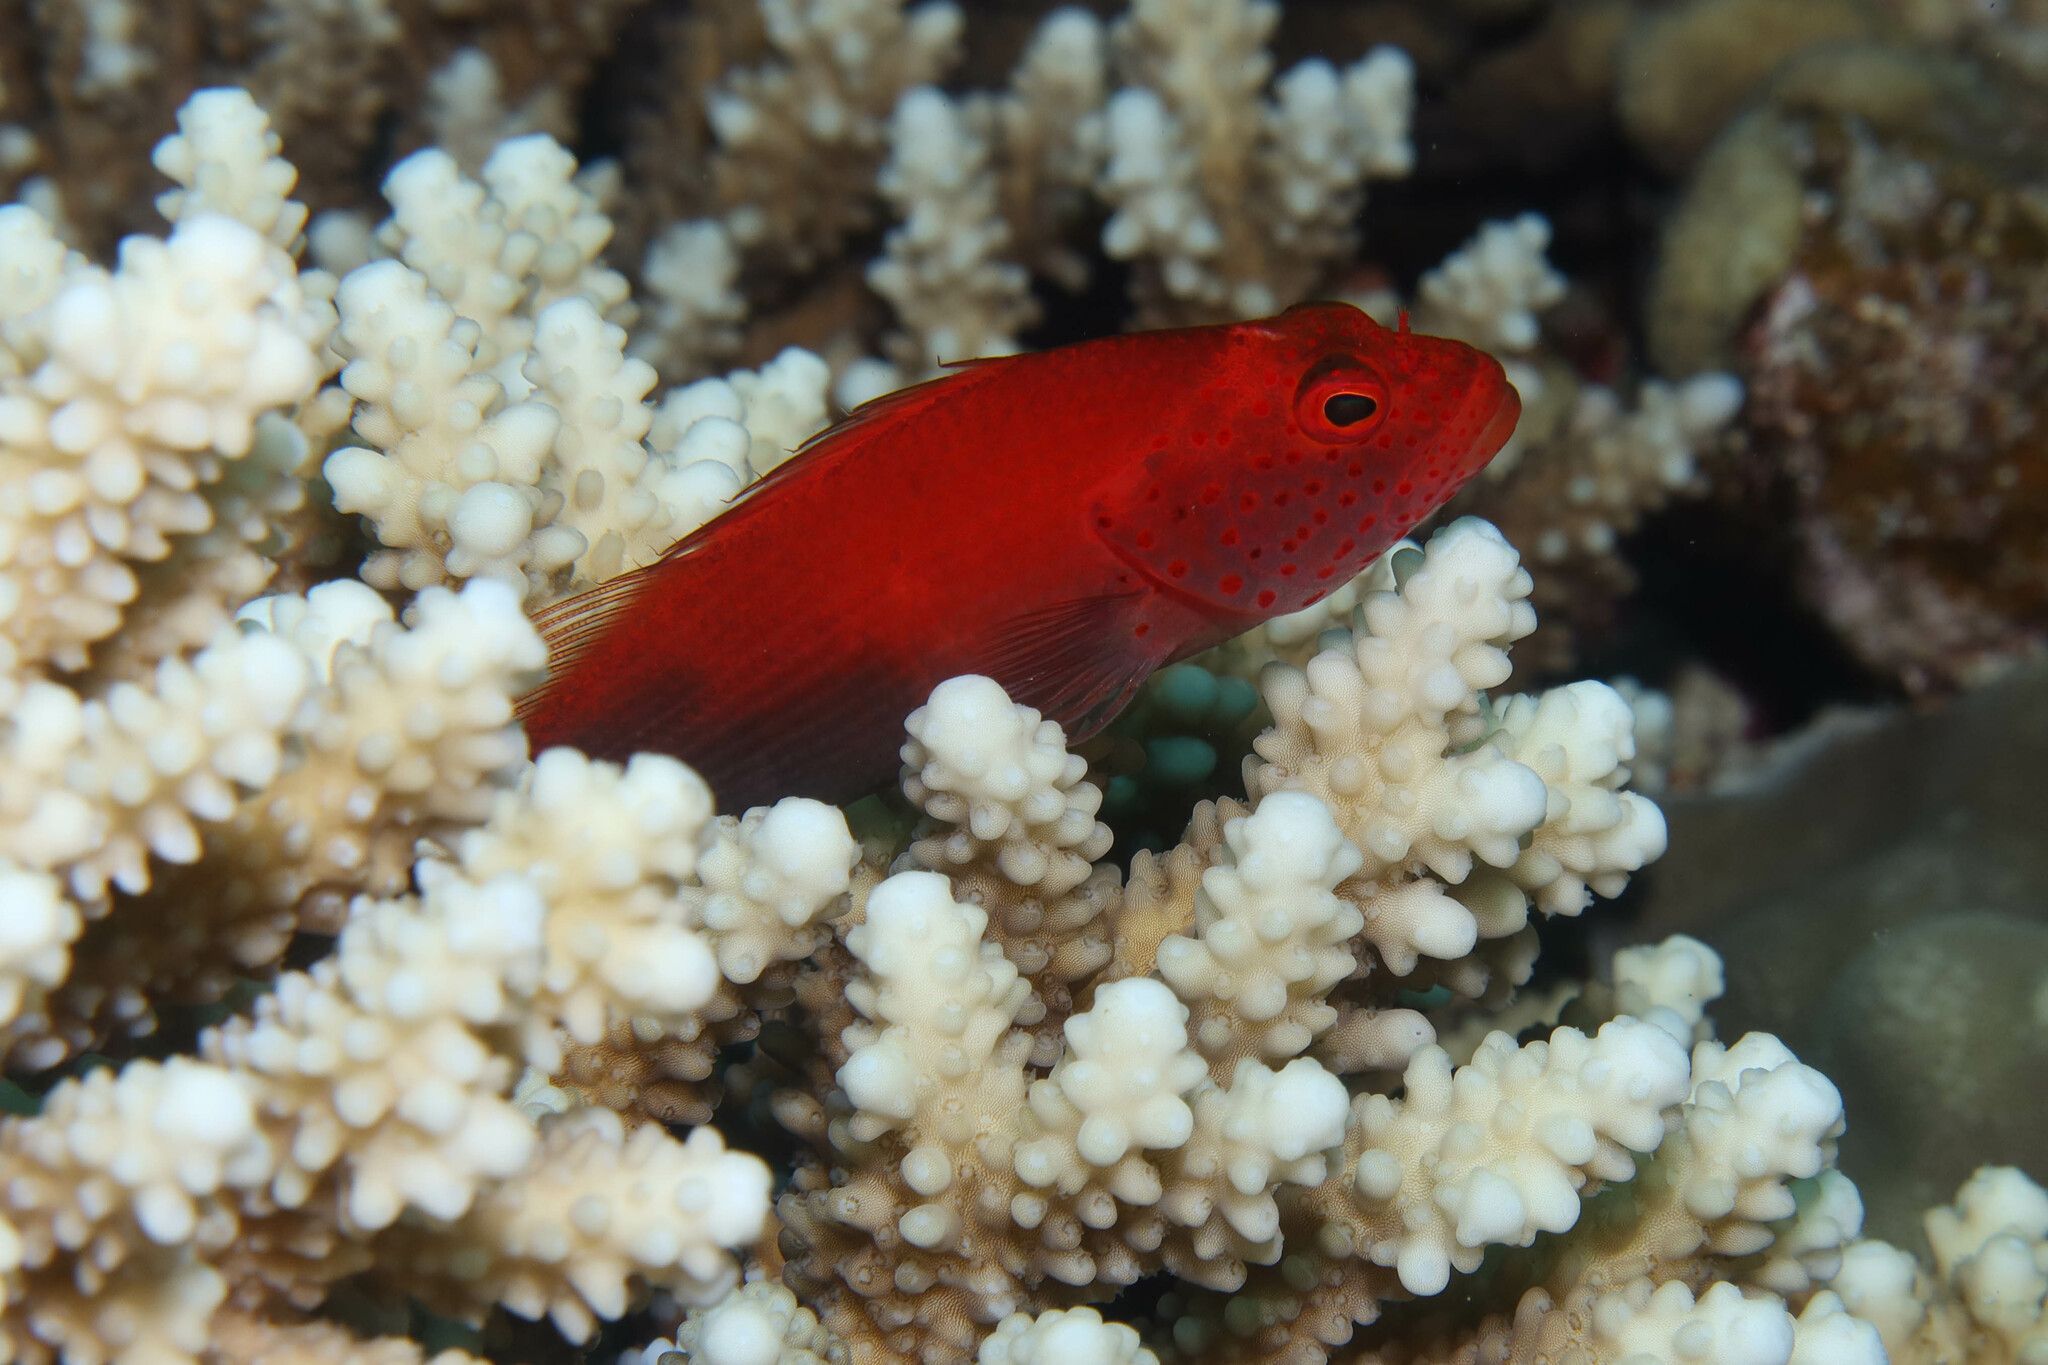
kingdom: Animalia
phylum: Chordata
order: Perciformes
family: Cirrhitidae
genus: Paracirrhites
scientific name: Paracirrhites forsteri
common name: Freckled hawkfish
